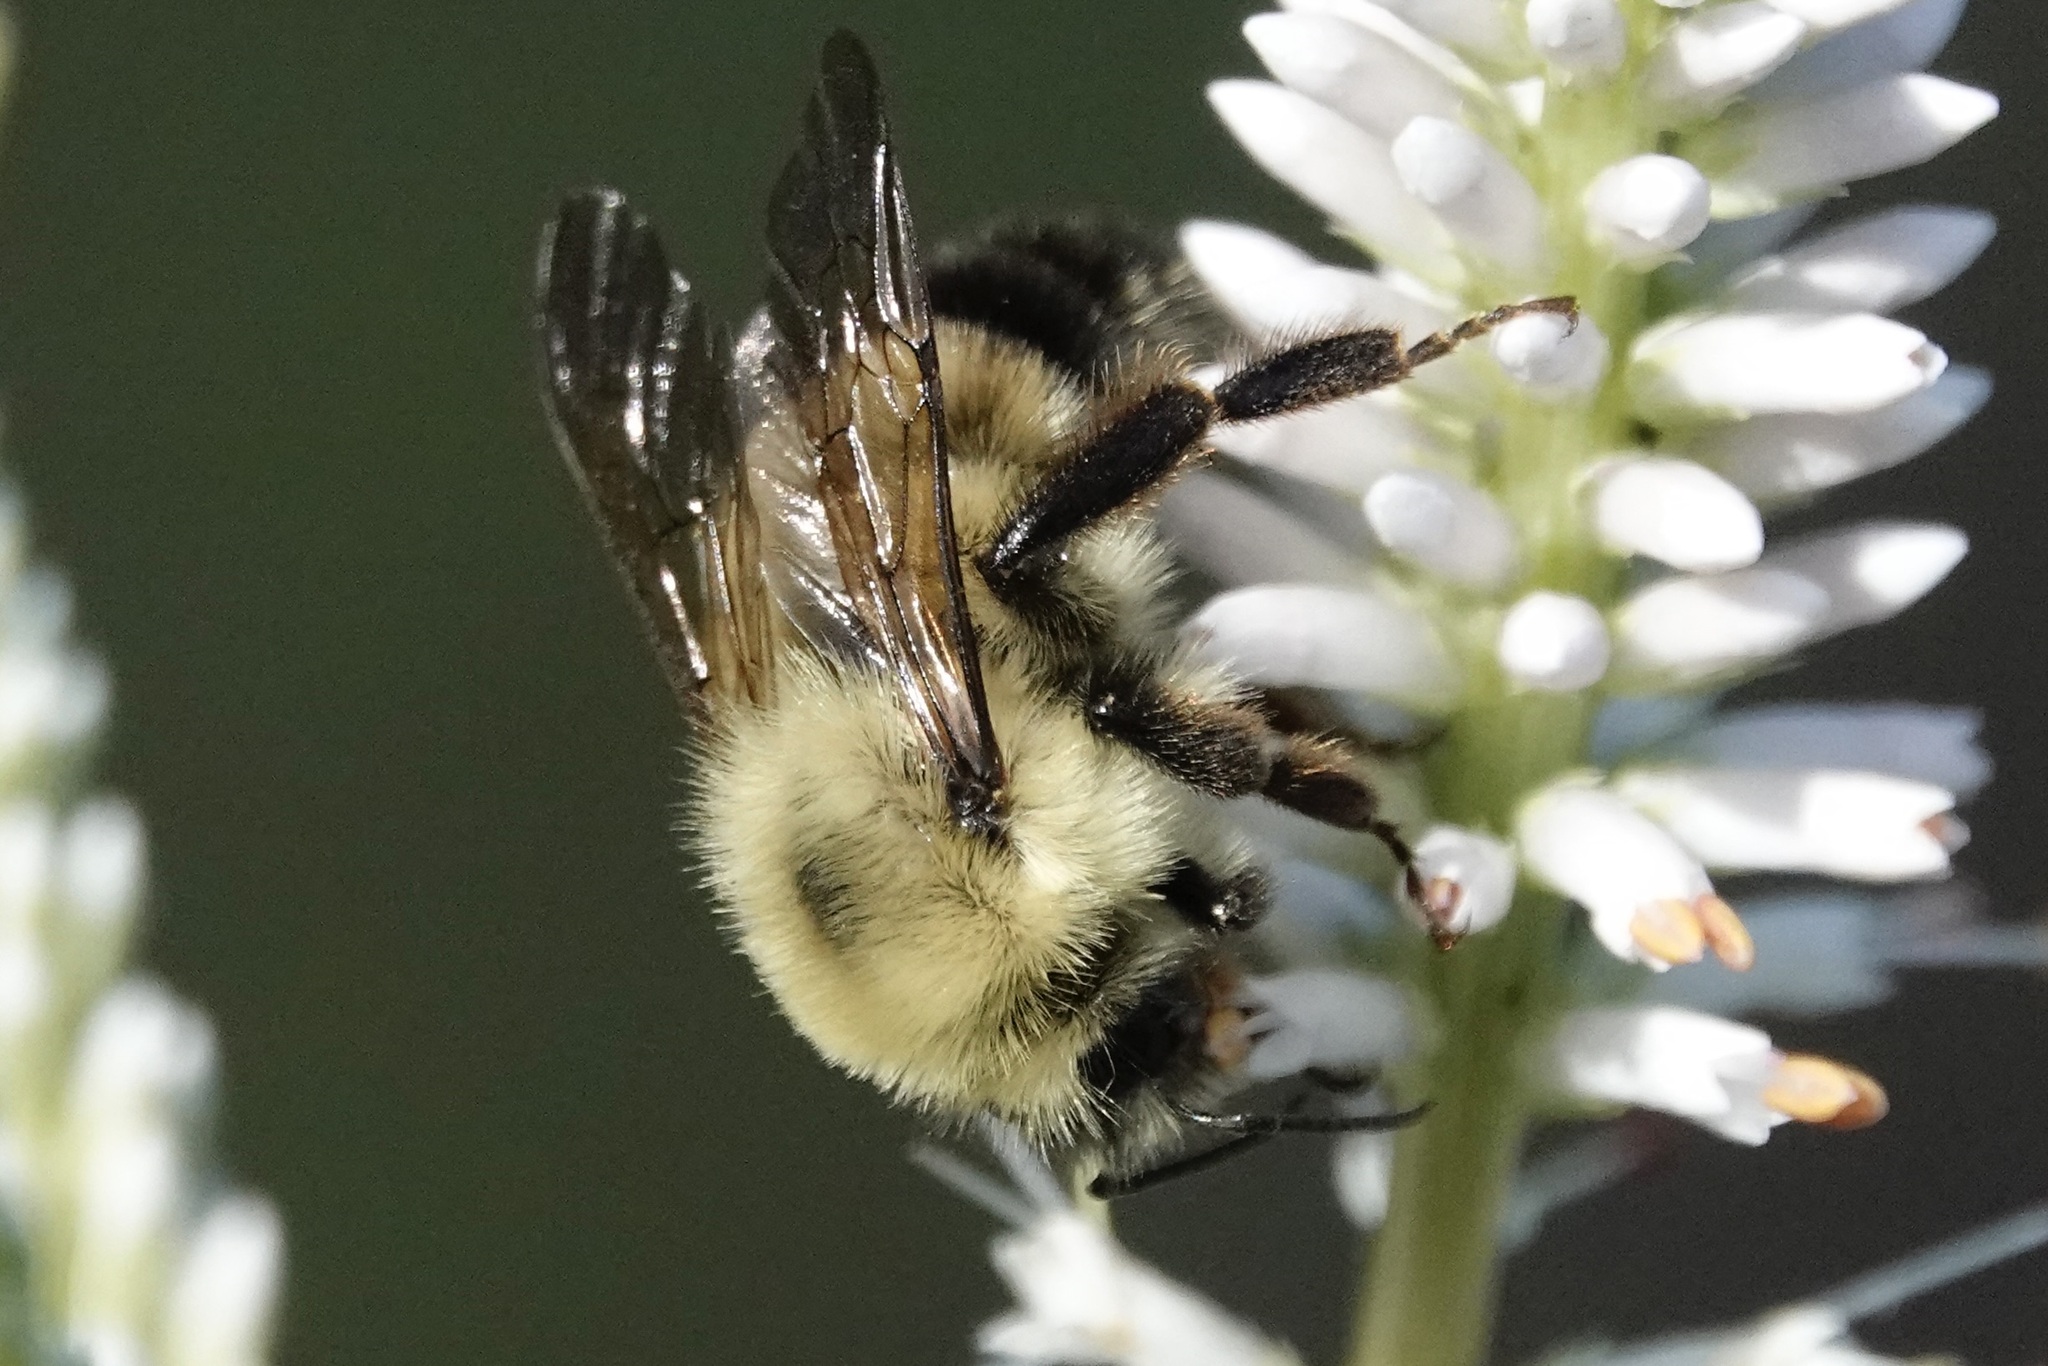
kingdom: Animalia
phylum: Arthropoda
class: Insecta
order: Hymenoptera
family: Apidae
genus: Bombus
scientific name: Bombus bimaculatus
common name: Two-spotted bumble bee
